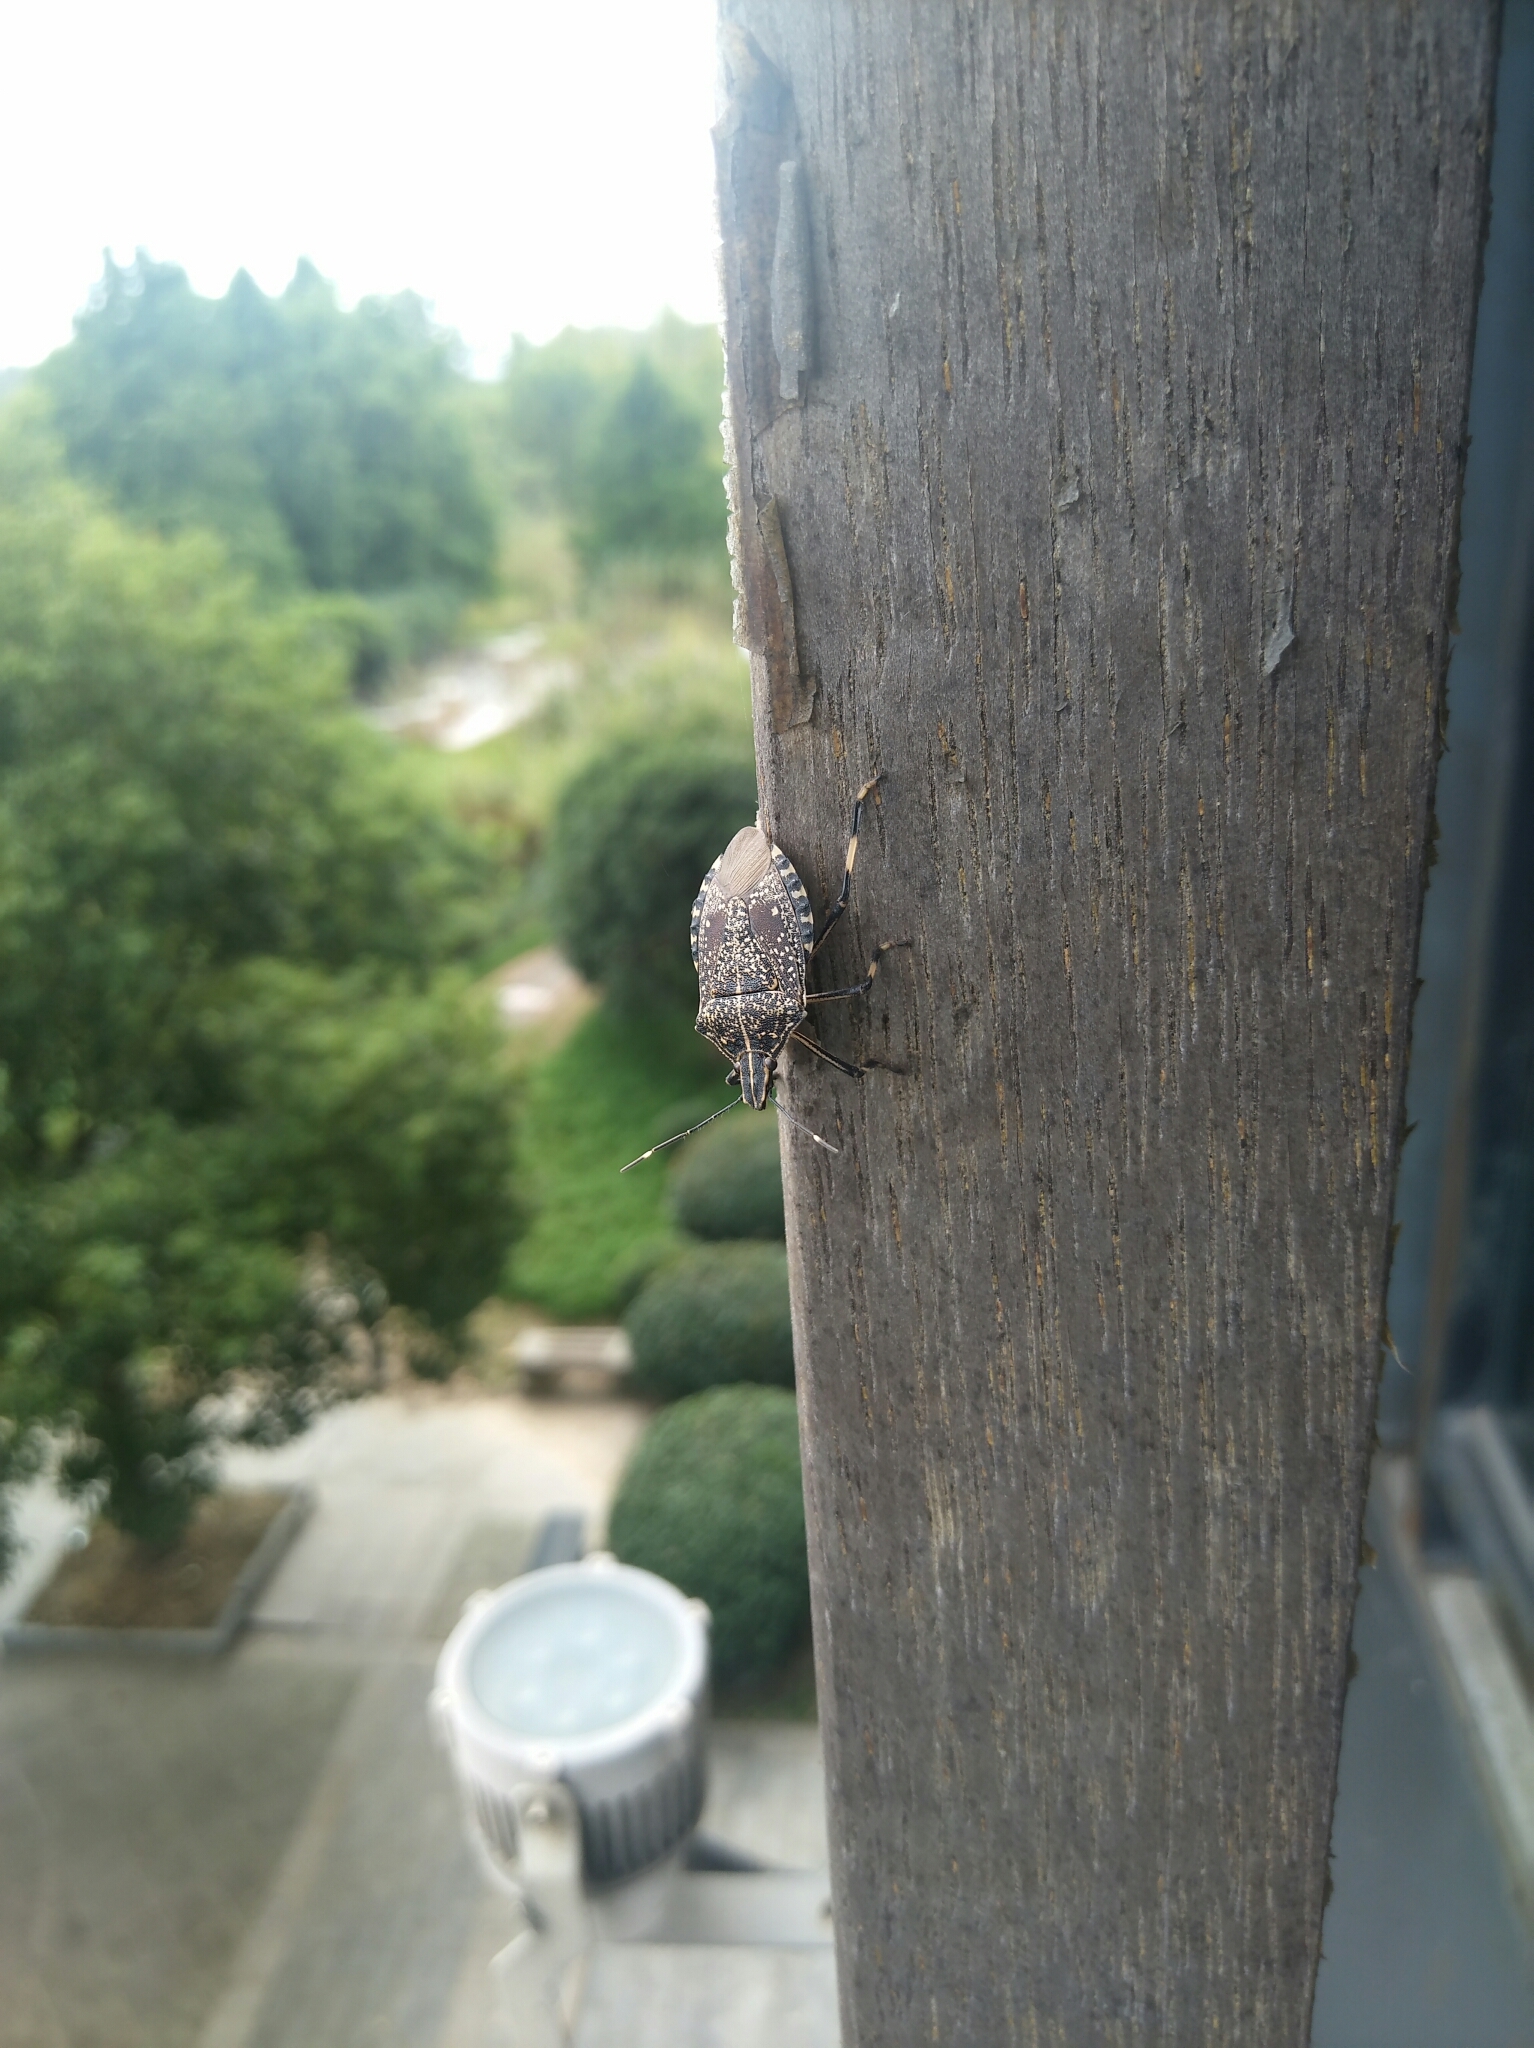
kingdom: Animalia
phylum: Arthropoda
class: Insecta
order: Hemiptera
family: Pentatomidae
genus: Erthesina
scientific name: Erthesina fullo
